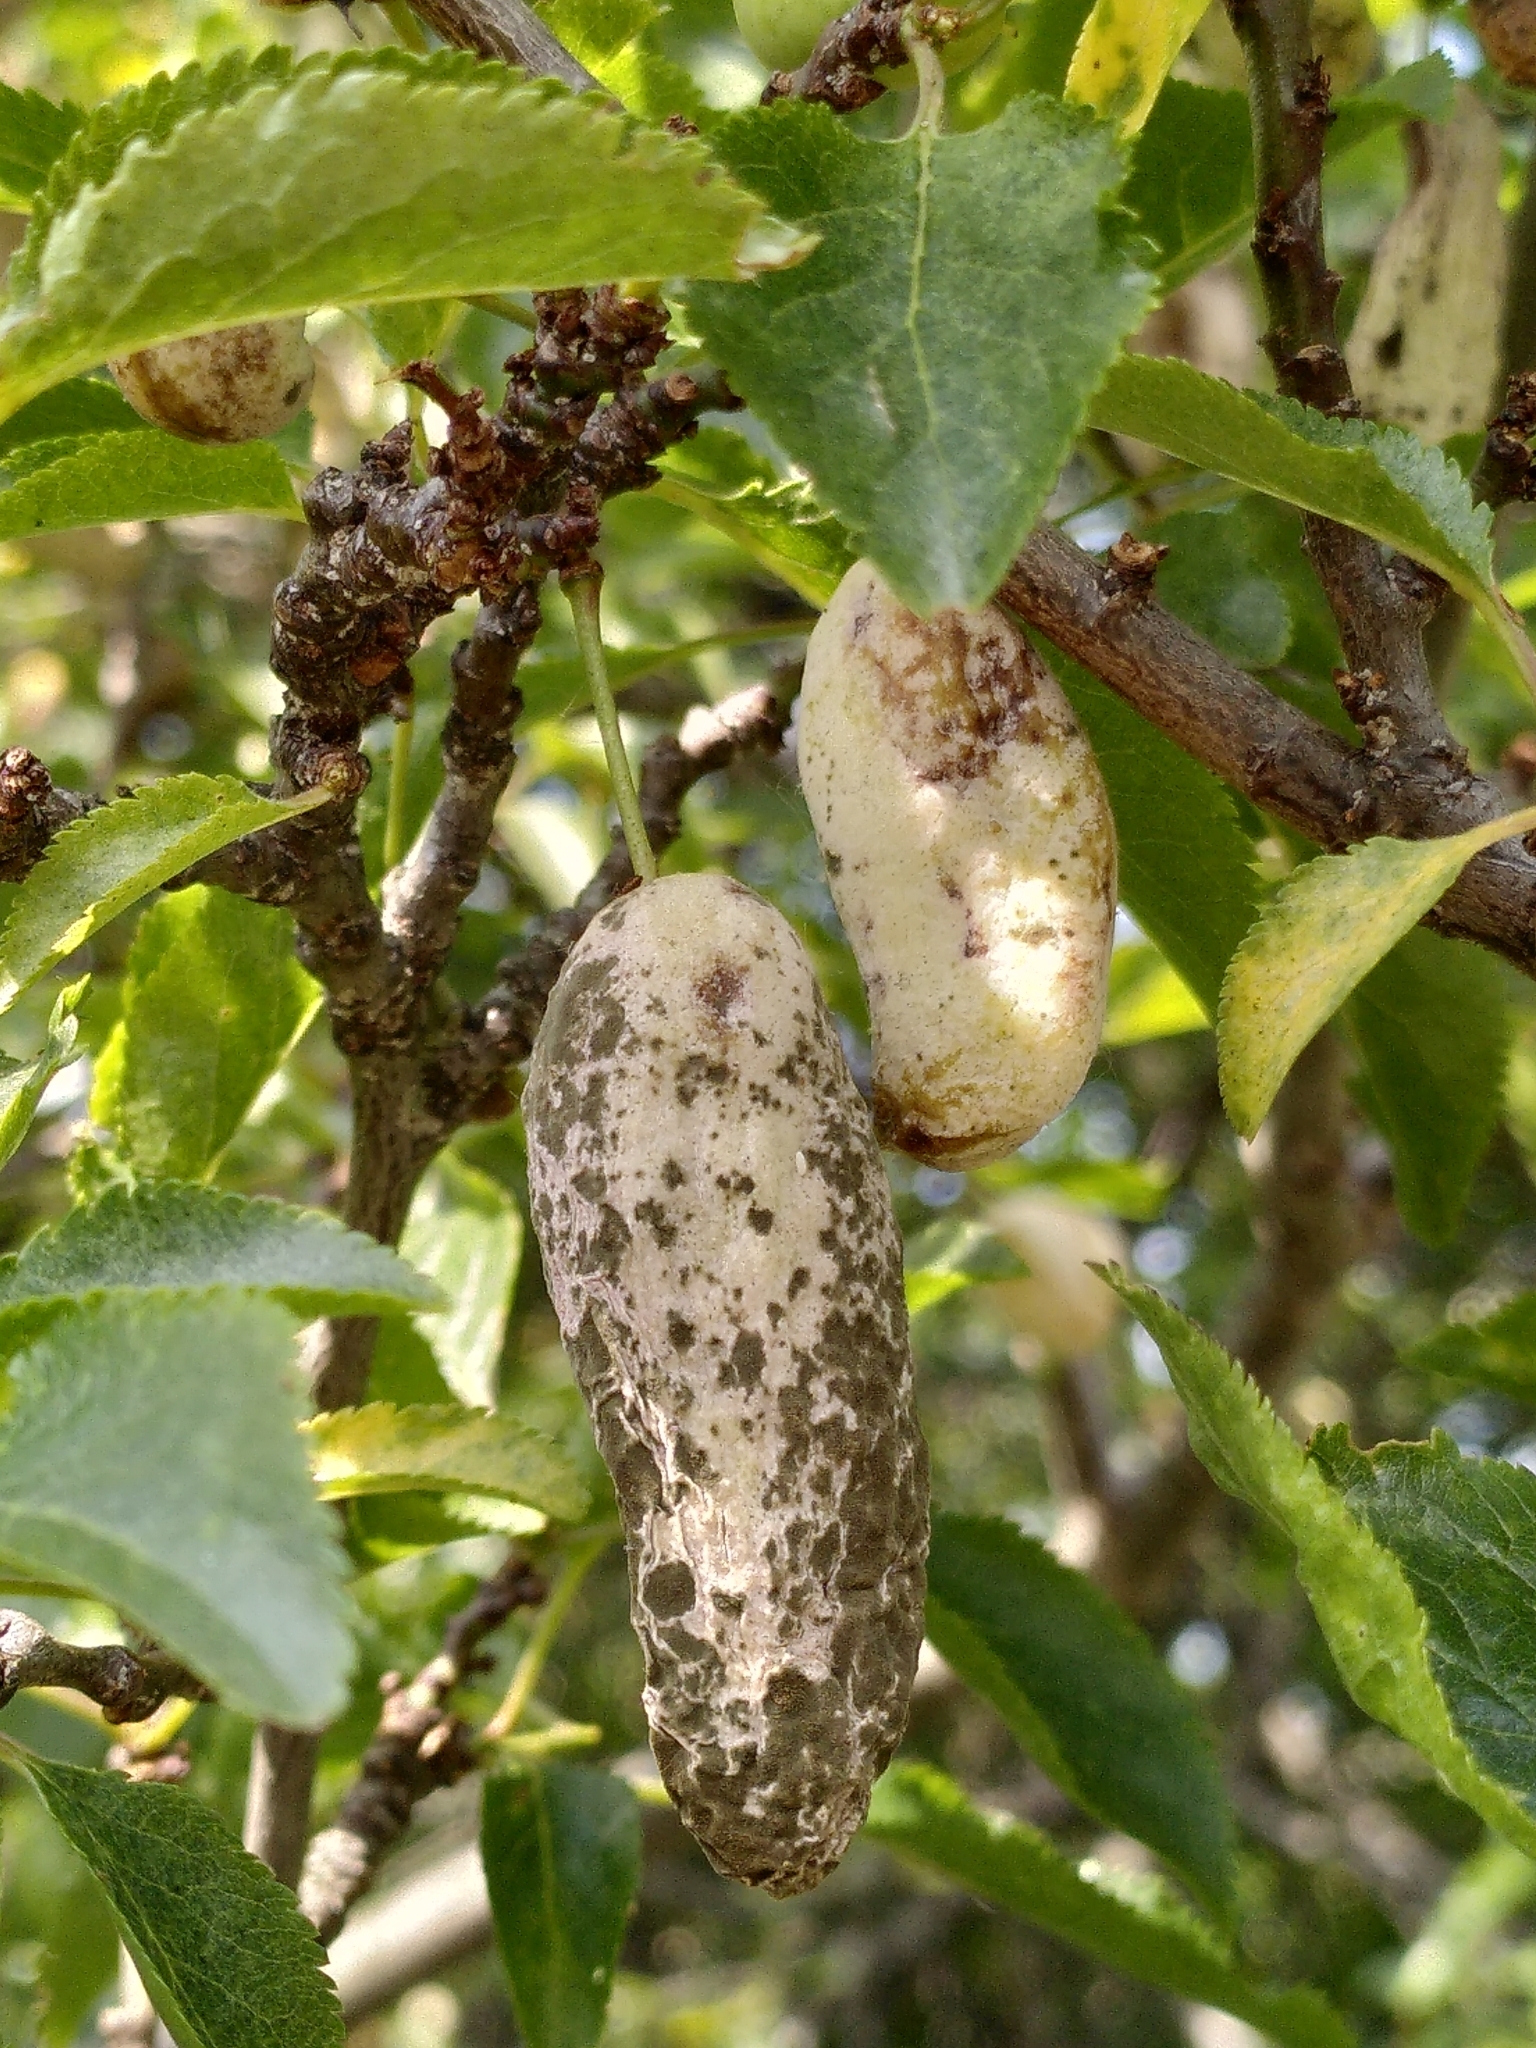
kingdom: Fungi
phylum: Ascomycota
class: Taphrinomycetes
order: Taphrinales
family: Taphrinaceae
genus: Taphrina
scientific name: Taphrina pruni
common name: Pocket plum
